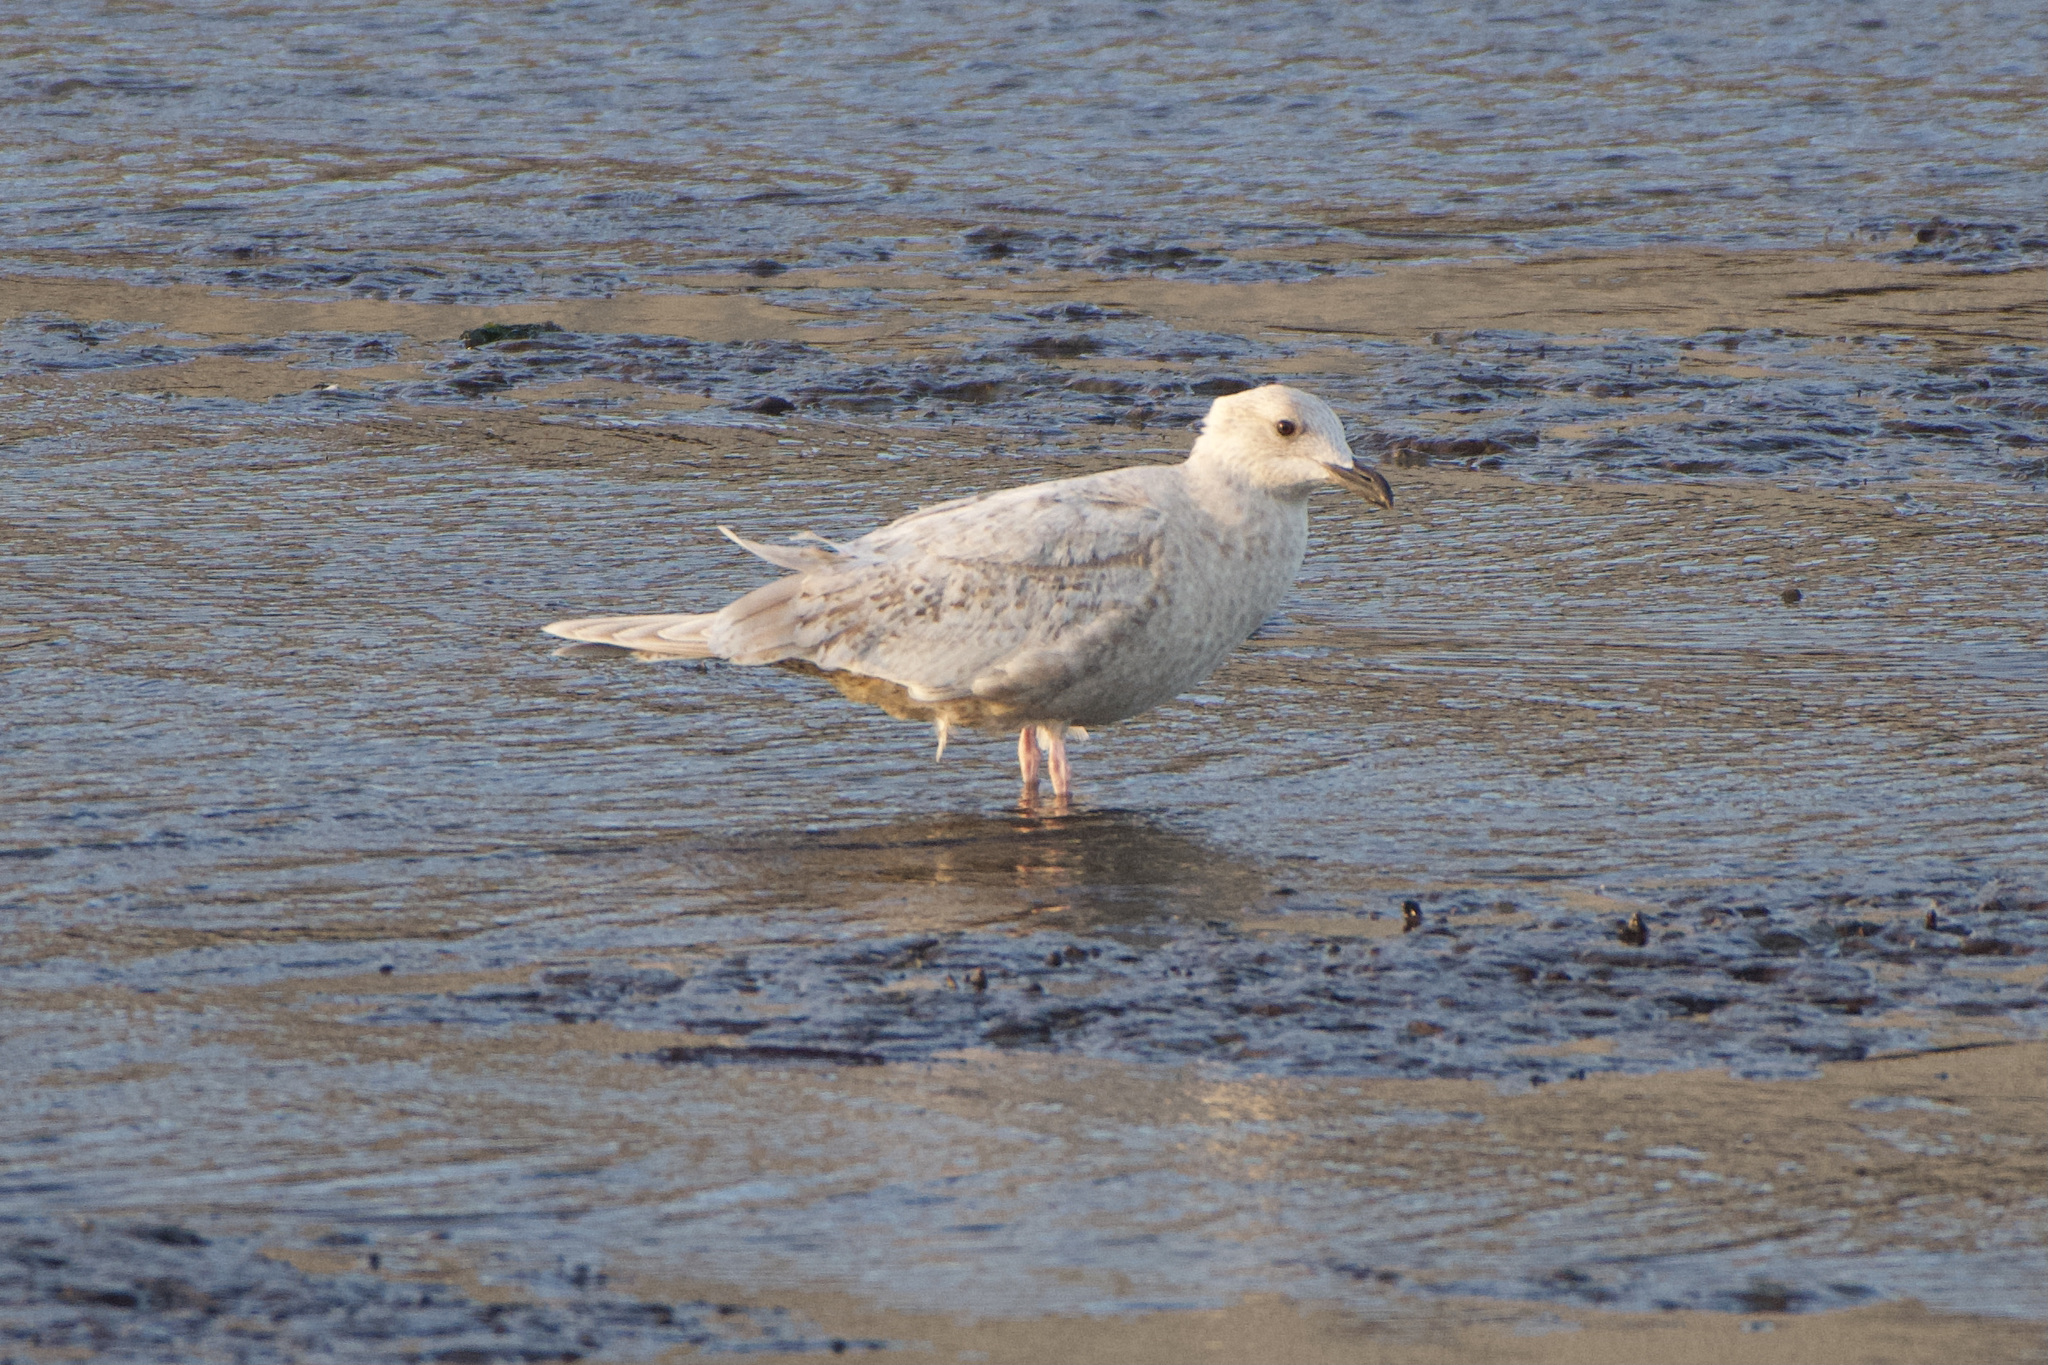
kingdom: Animalia
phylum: Chordata
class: Aves
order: Charadriiformes
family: Laridae
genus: Larus
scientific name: Larus glaucoides
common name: Iceland gull
